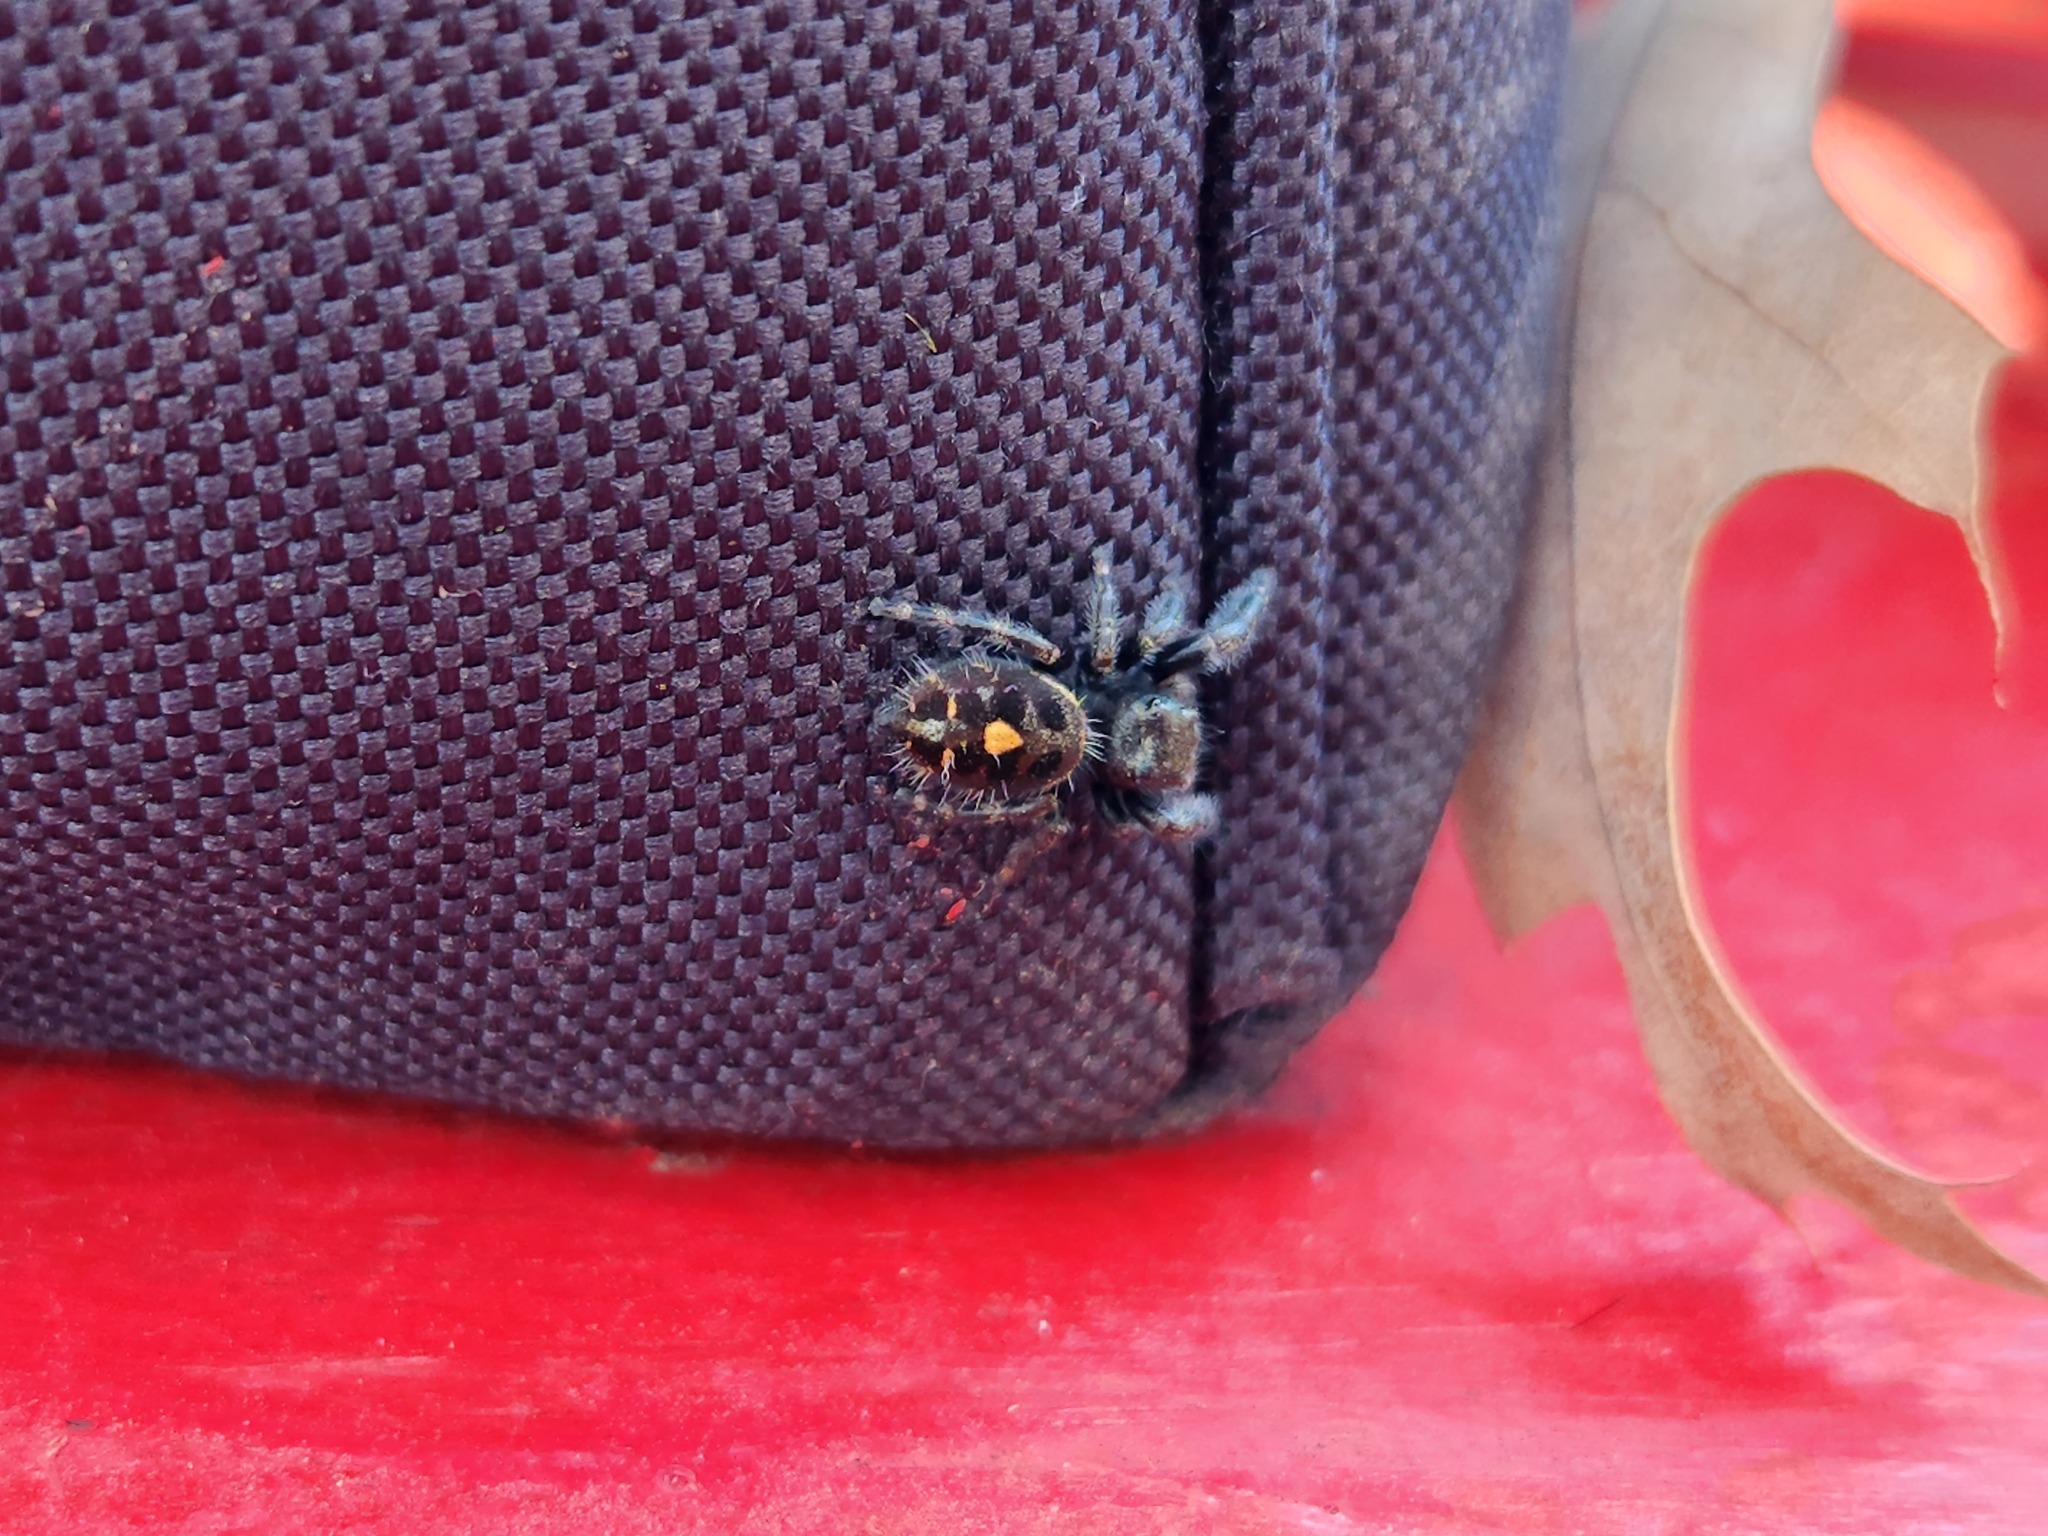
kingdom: Animalia
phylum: Arthropoda
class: Arachnida
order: Araneae
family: Salticidae
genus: Phidippus
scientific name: Phidippus audax
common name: Bold jumper
